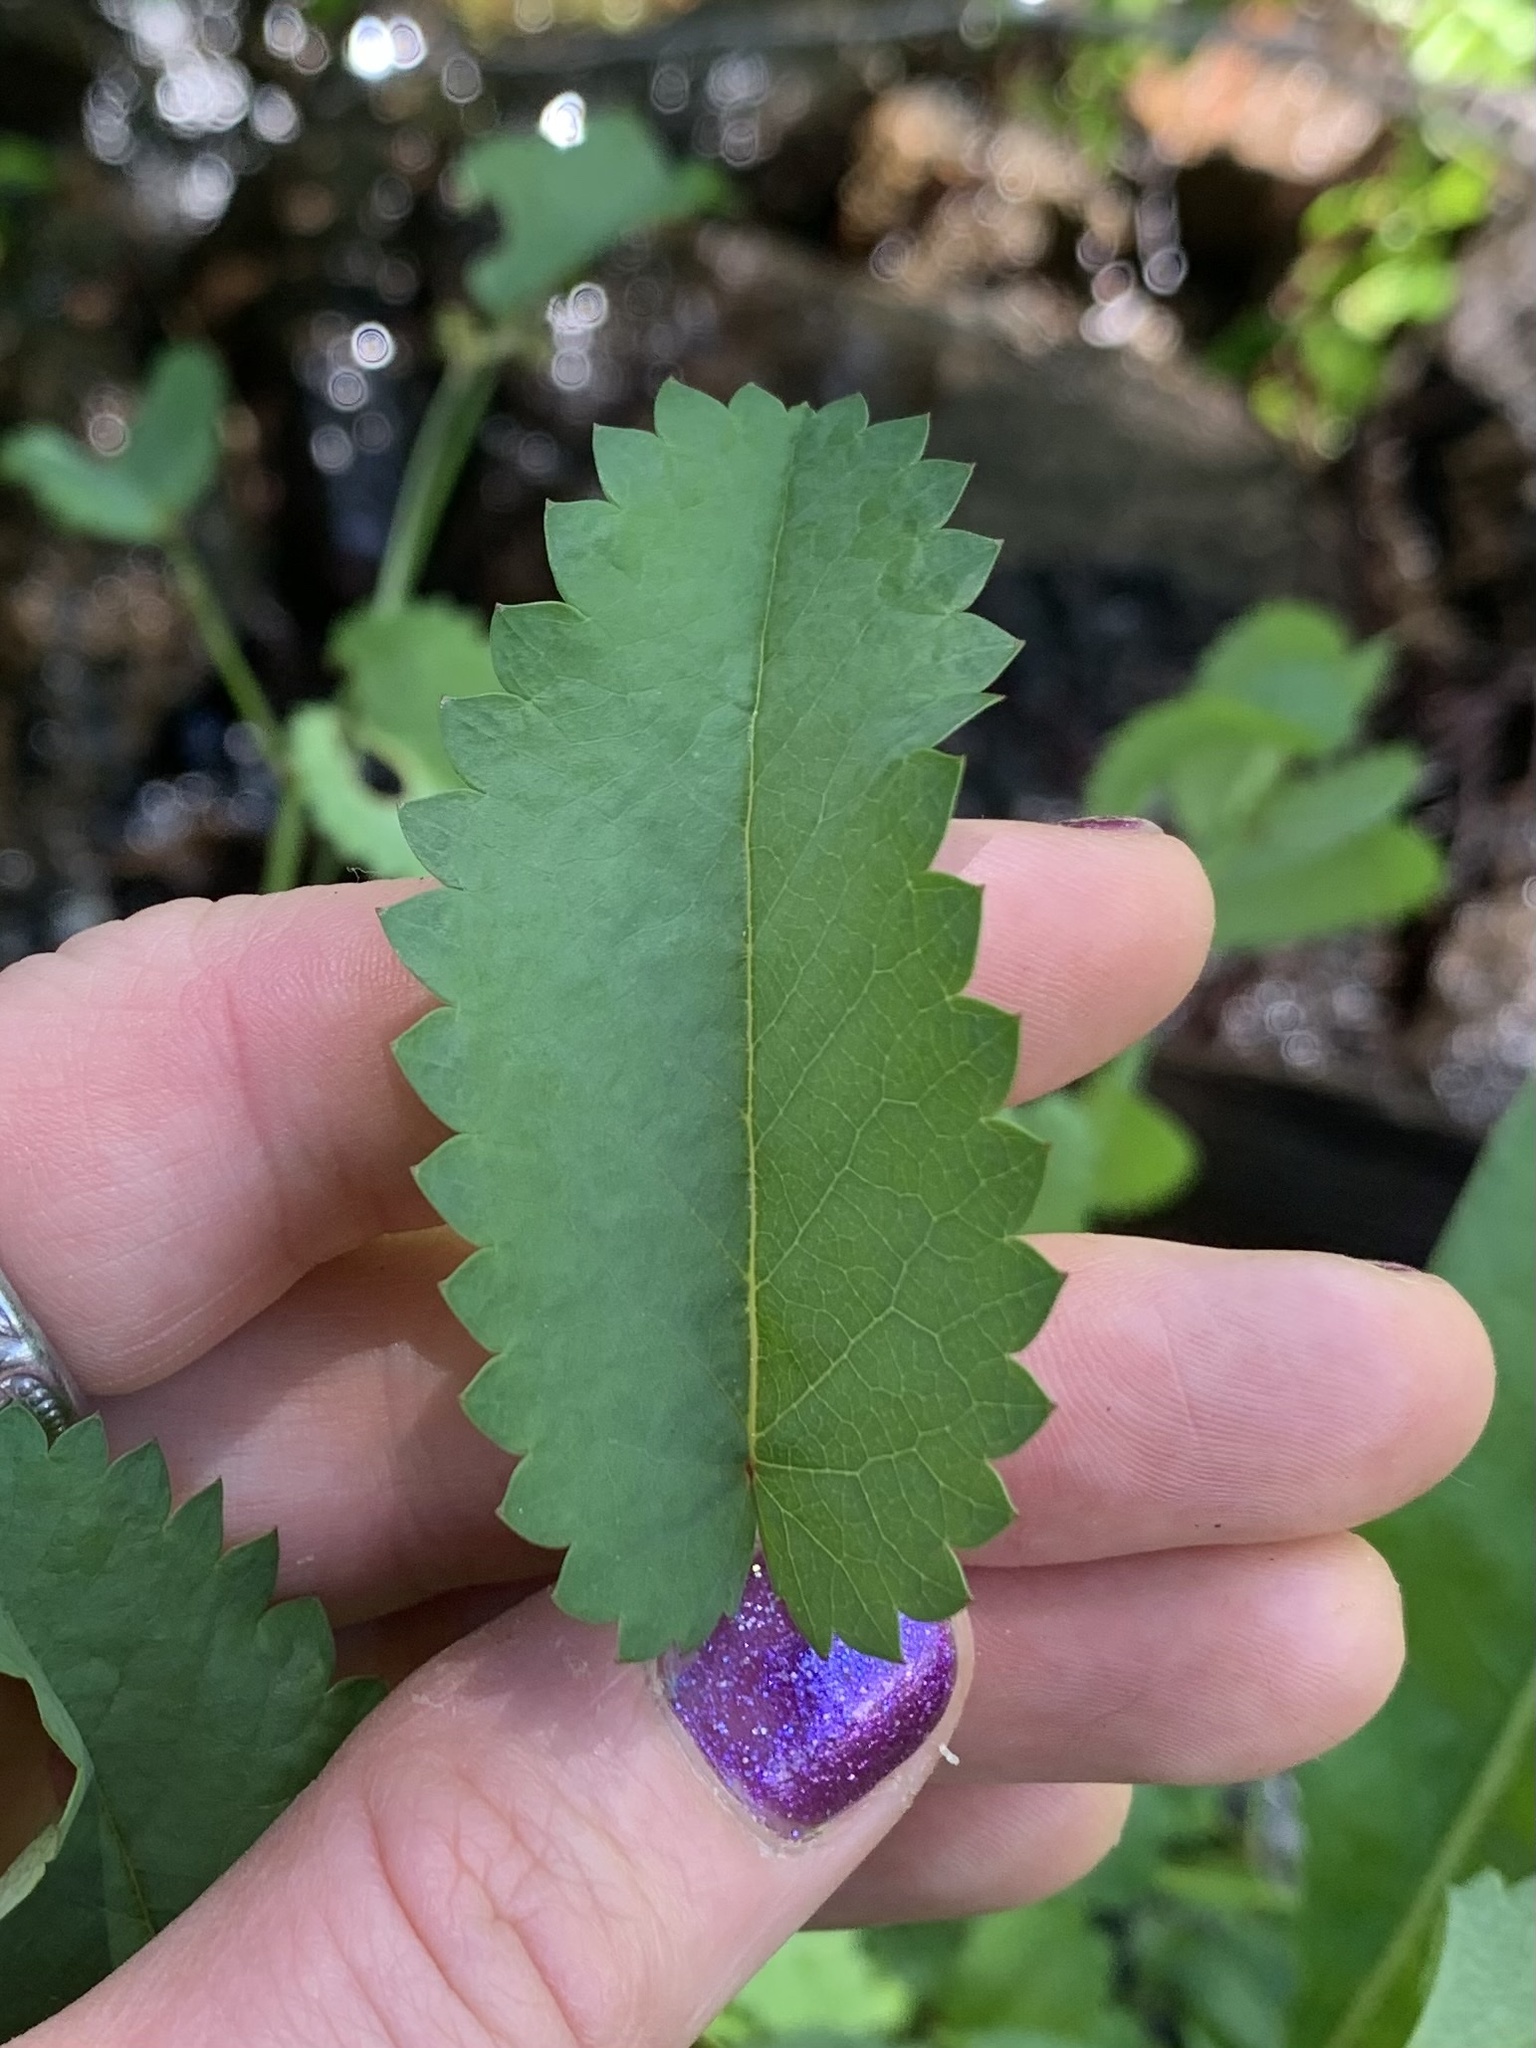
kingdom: Plantae
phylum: Tracheophyta
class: Magnoliopsida
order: Rosales
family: Rosaceae
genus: Sanguisorba
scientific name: Sanguisorba officinalis
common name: Great burnet
